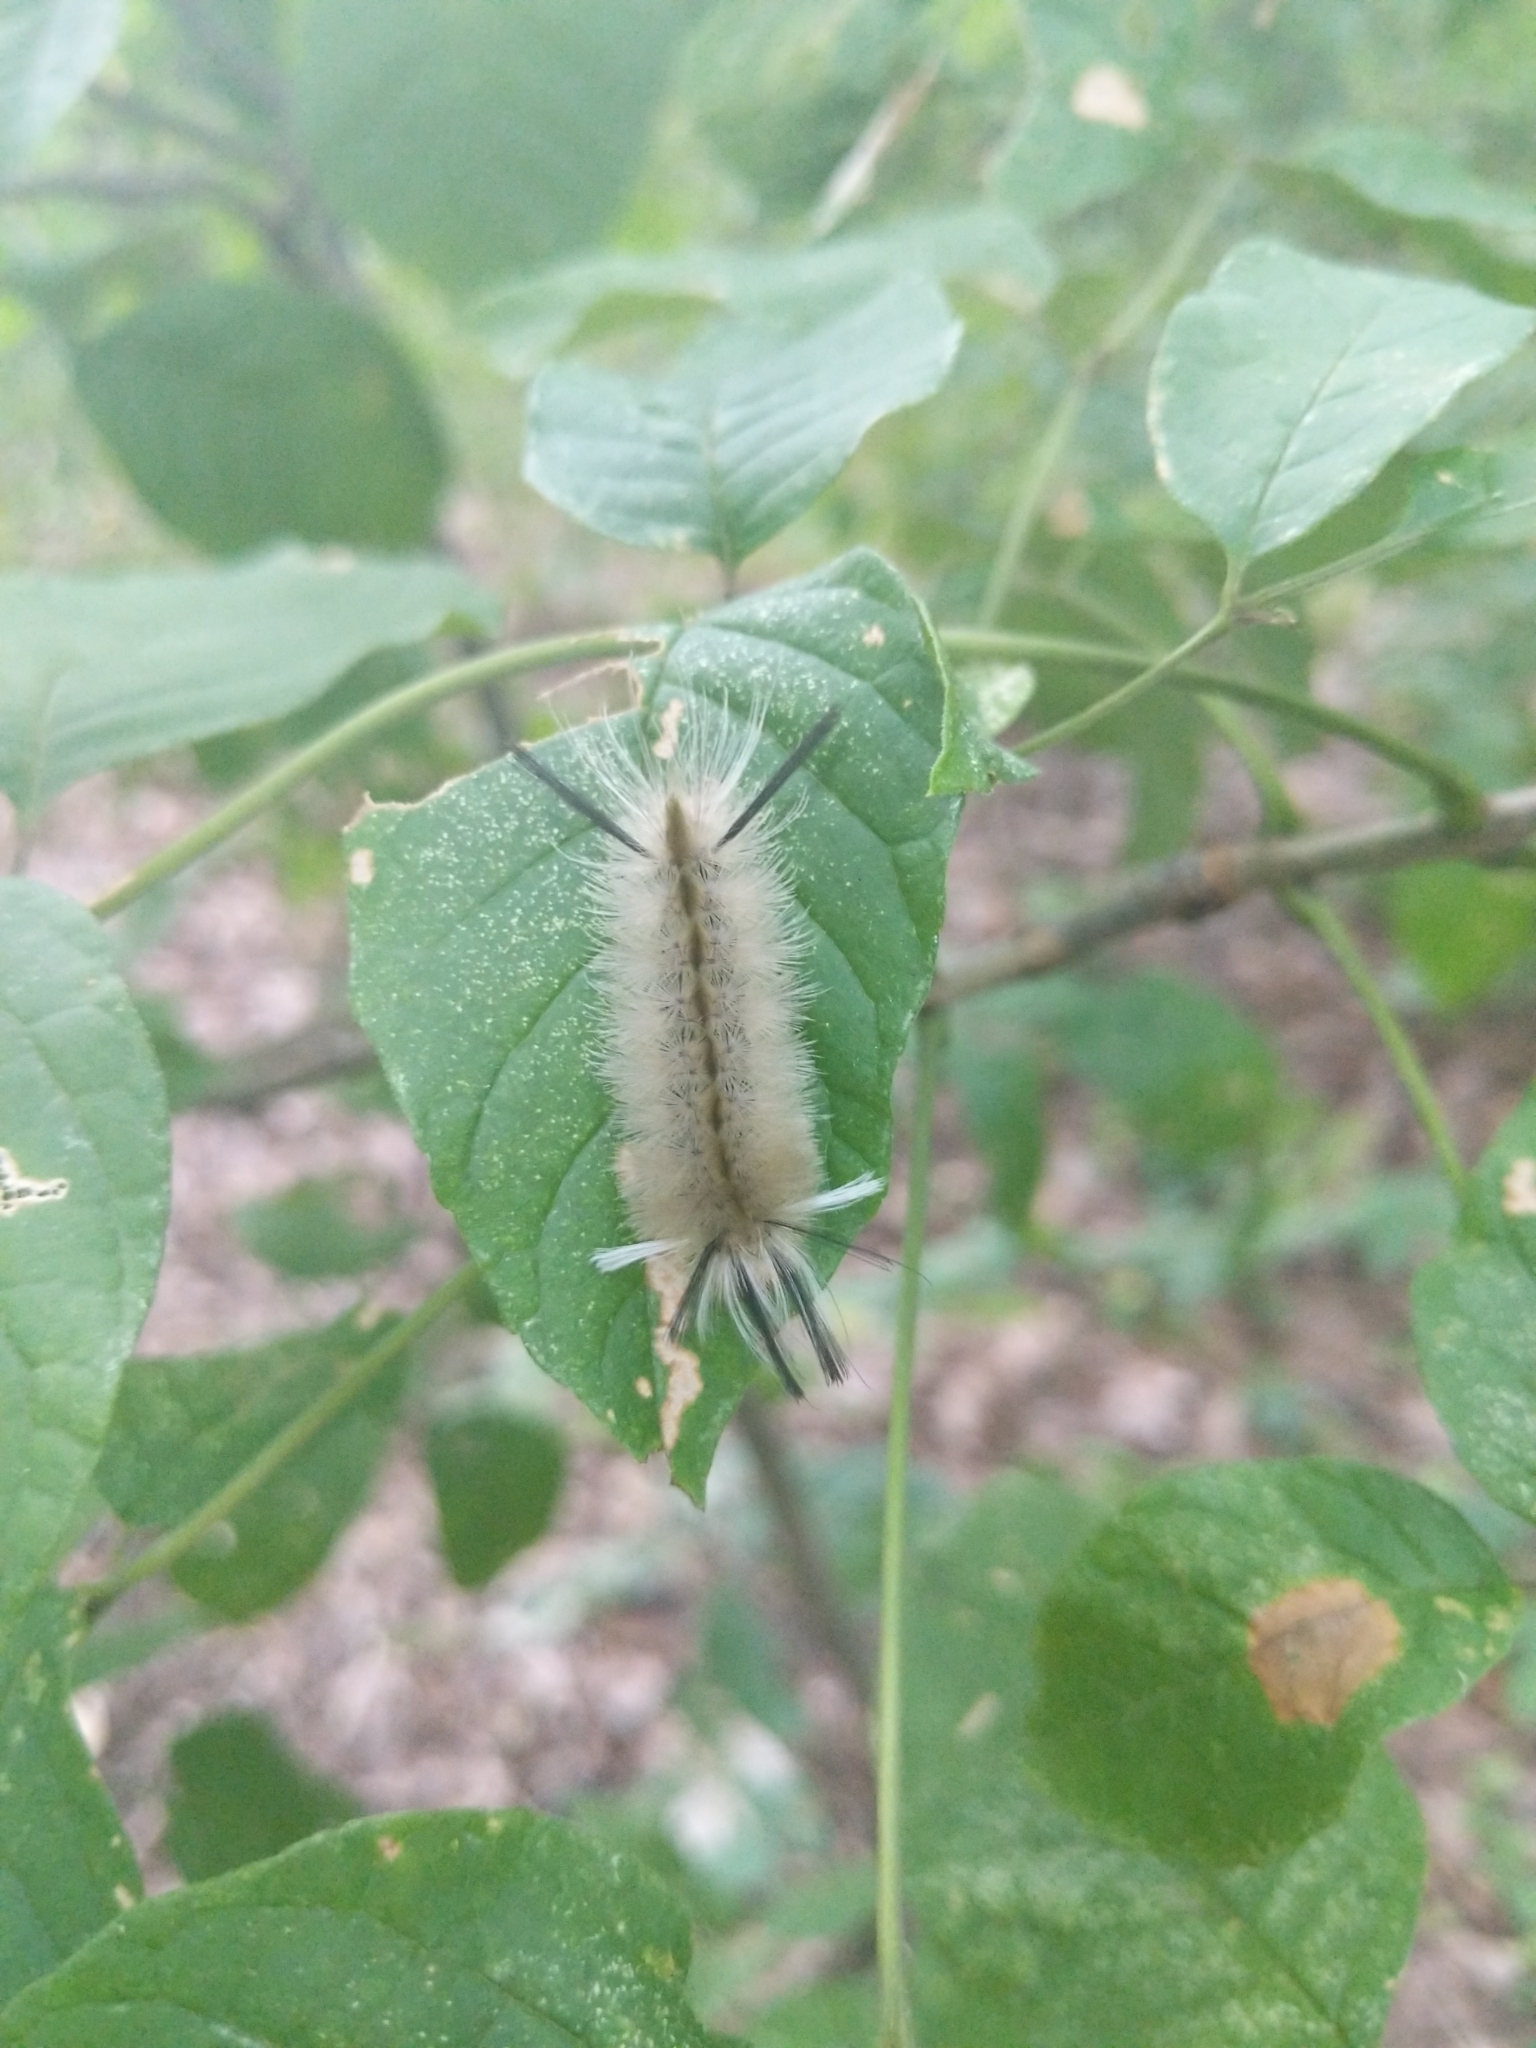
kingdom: Animalia
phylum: Arthropoda
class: Insecta
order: Lepidoptera
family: Erebidae
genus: Halysidota
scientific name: Halysidota tessellaris
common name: Banded tussock moth
